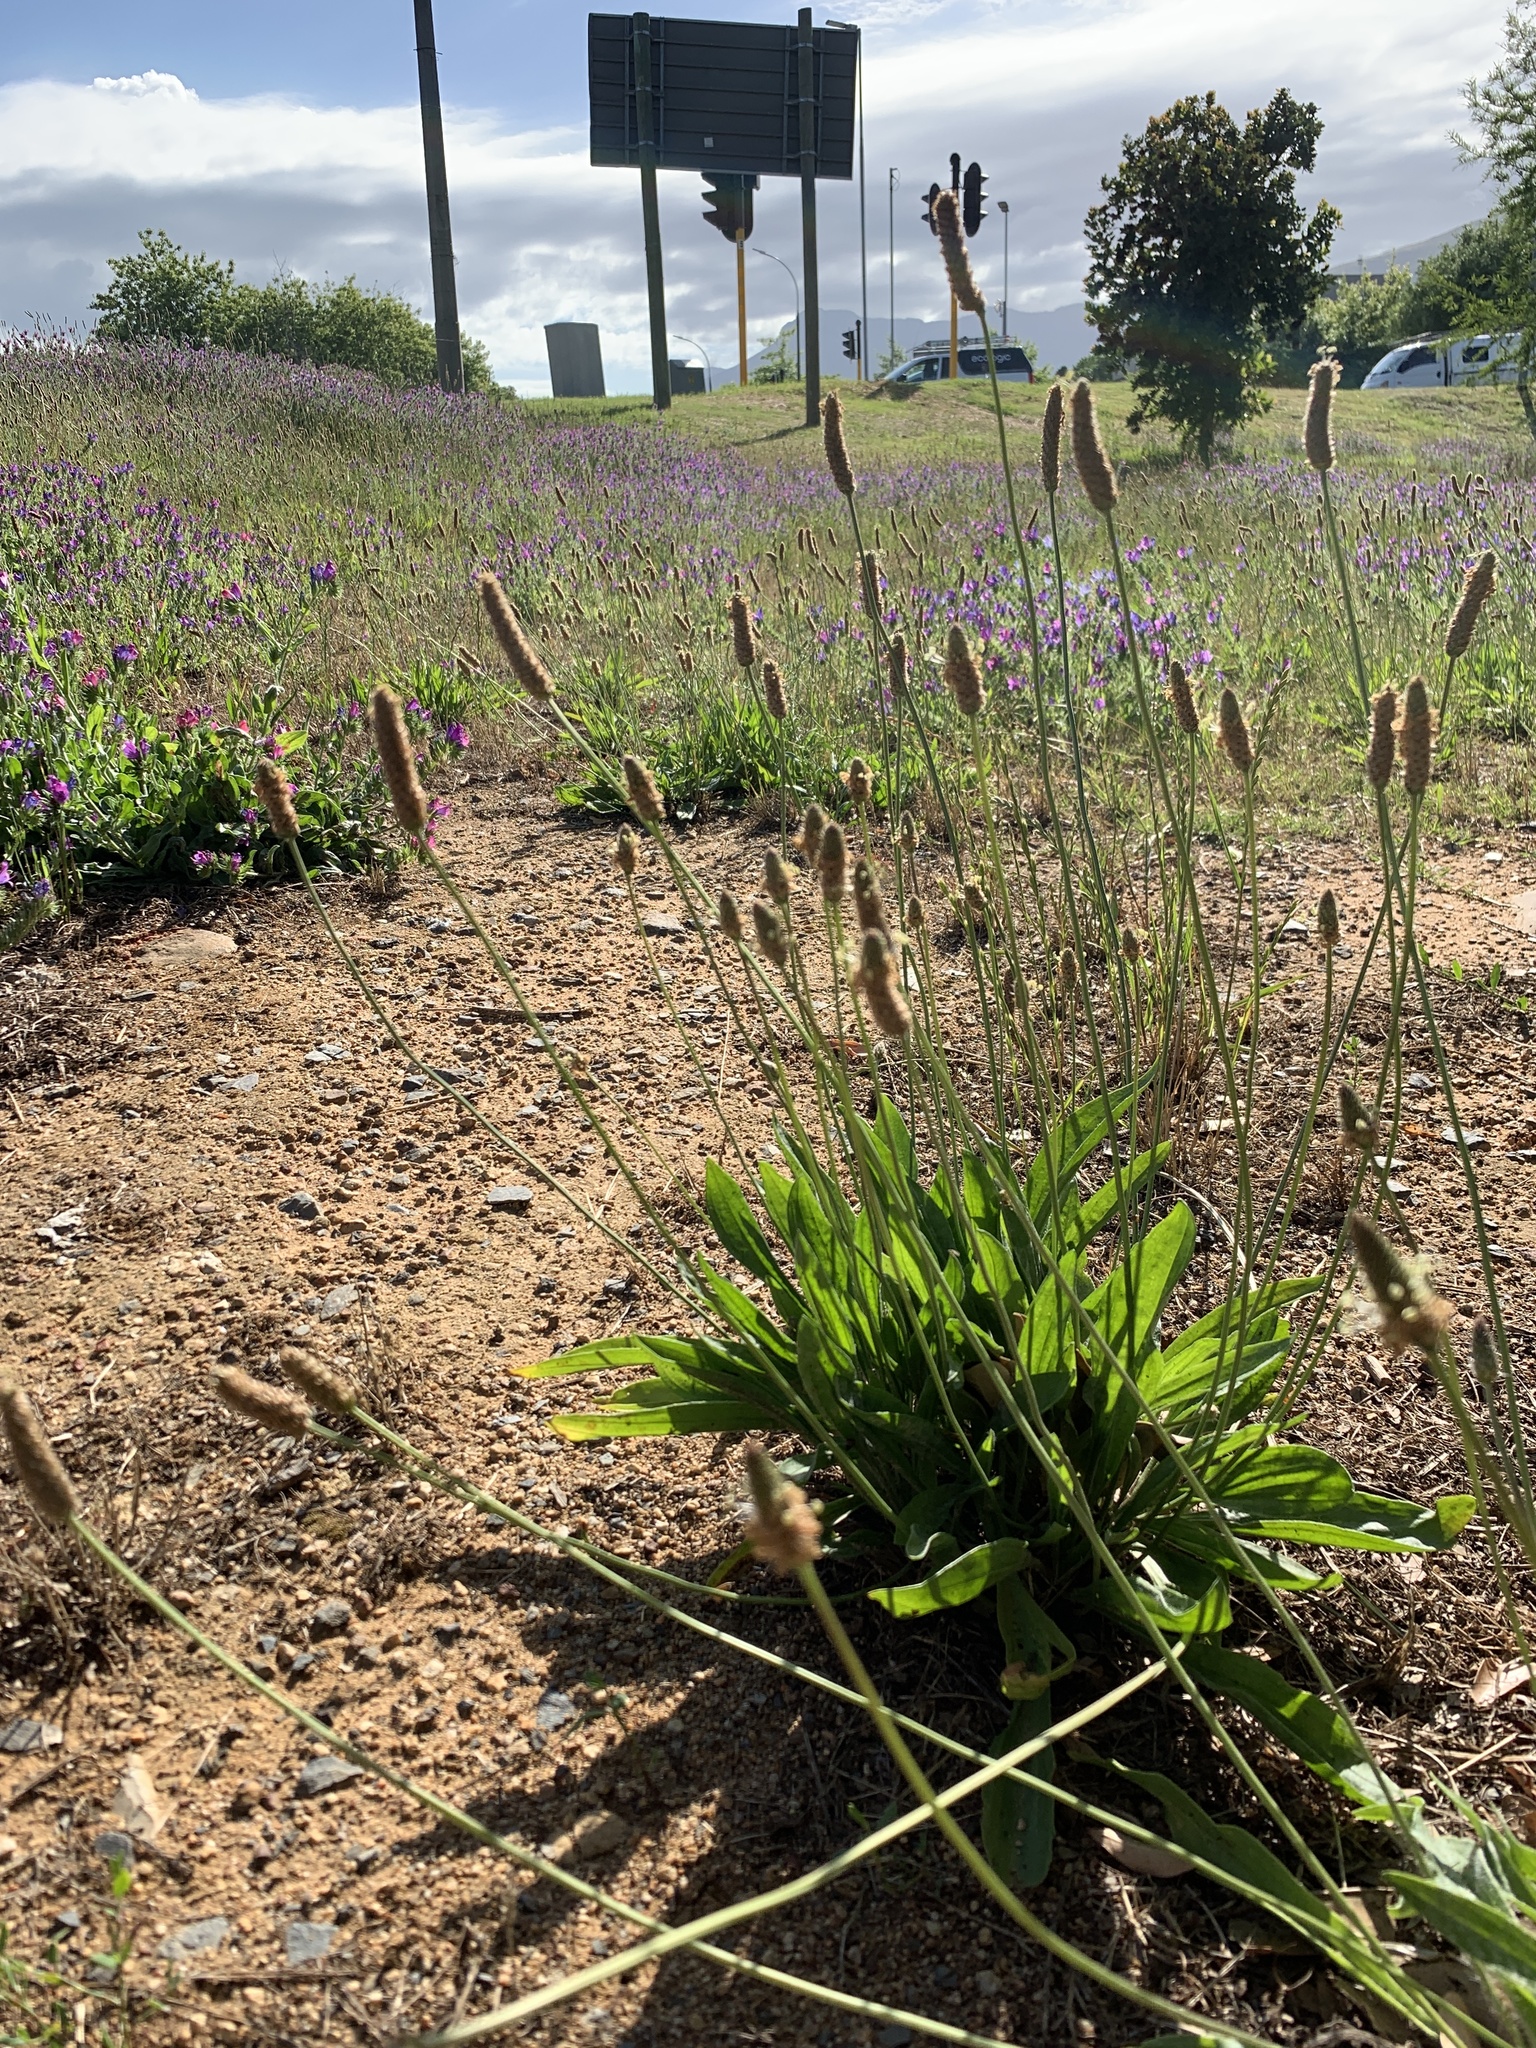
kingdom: Plantae
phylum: Tracheophyta
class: Magnoliopsida
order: Lamiales
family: Plantaginaceae
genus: Plantago
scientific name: Plantago lanceolata
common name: Ribwort plantain
